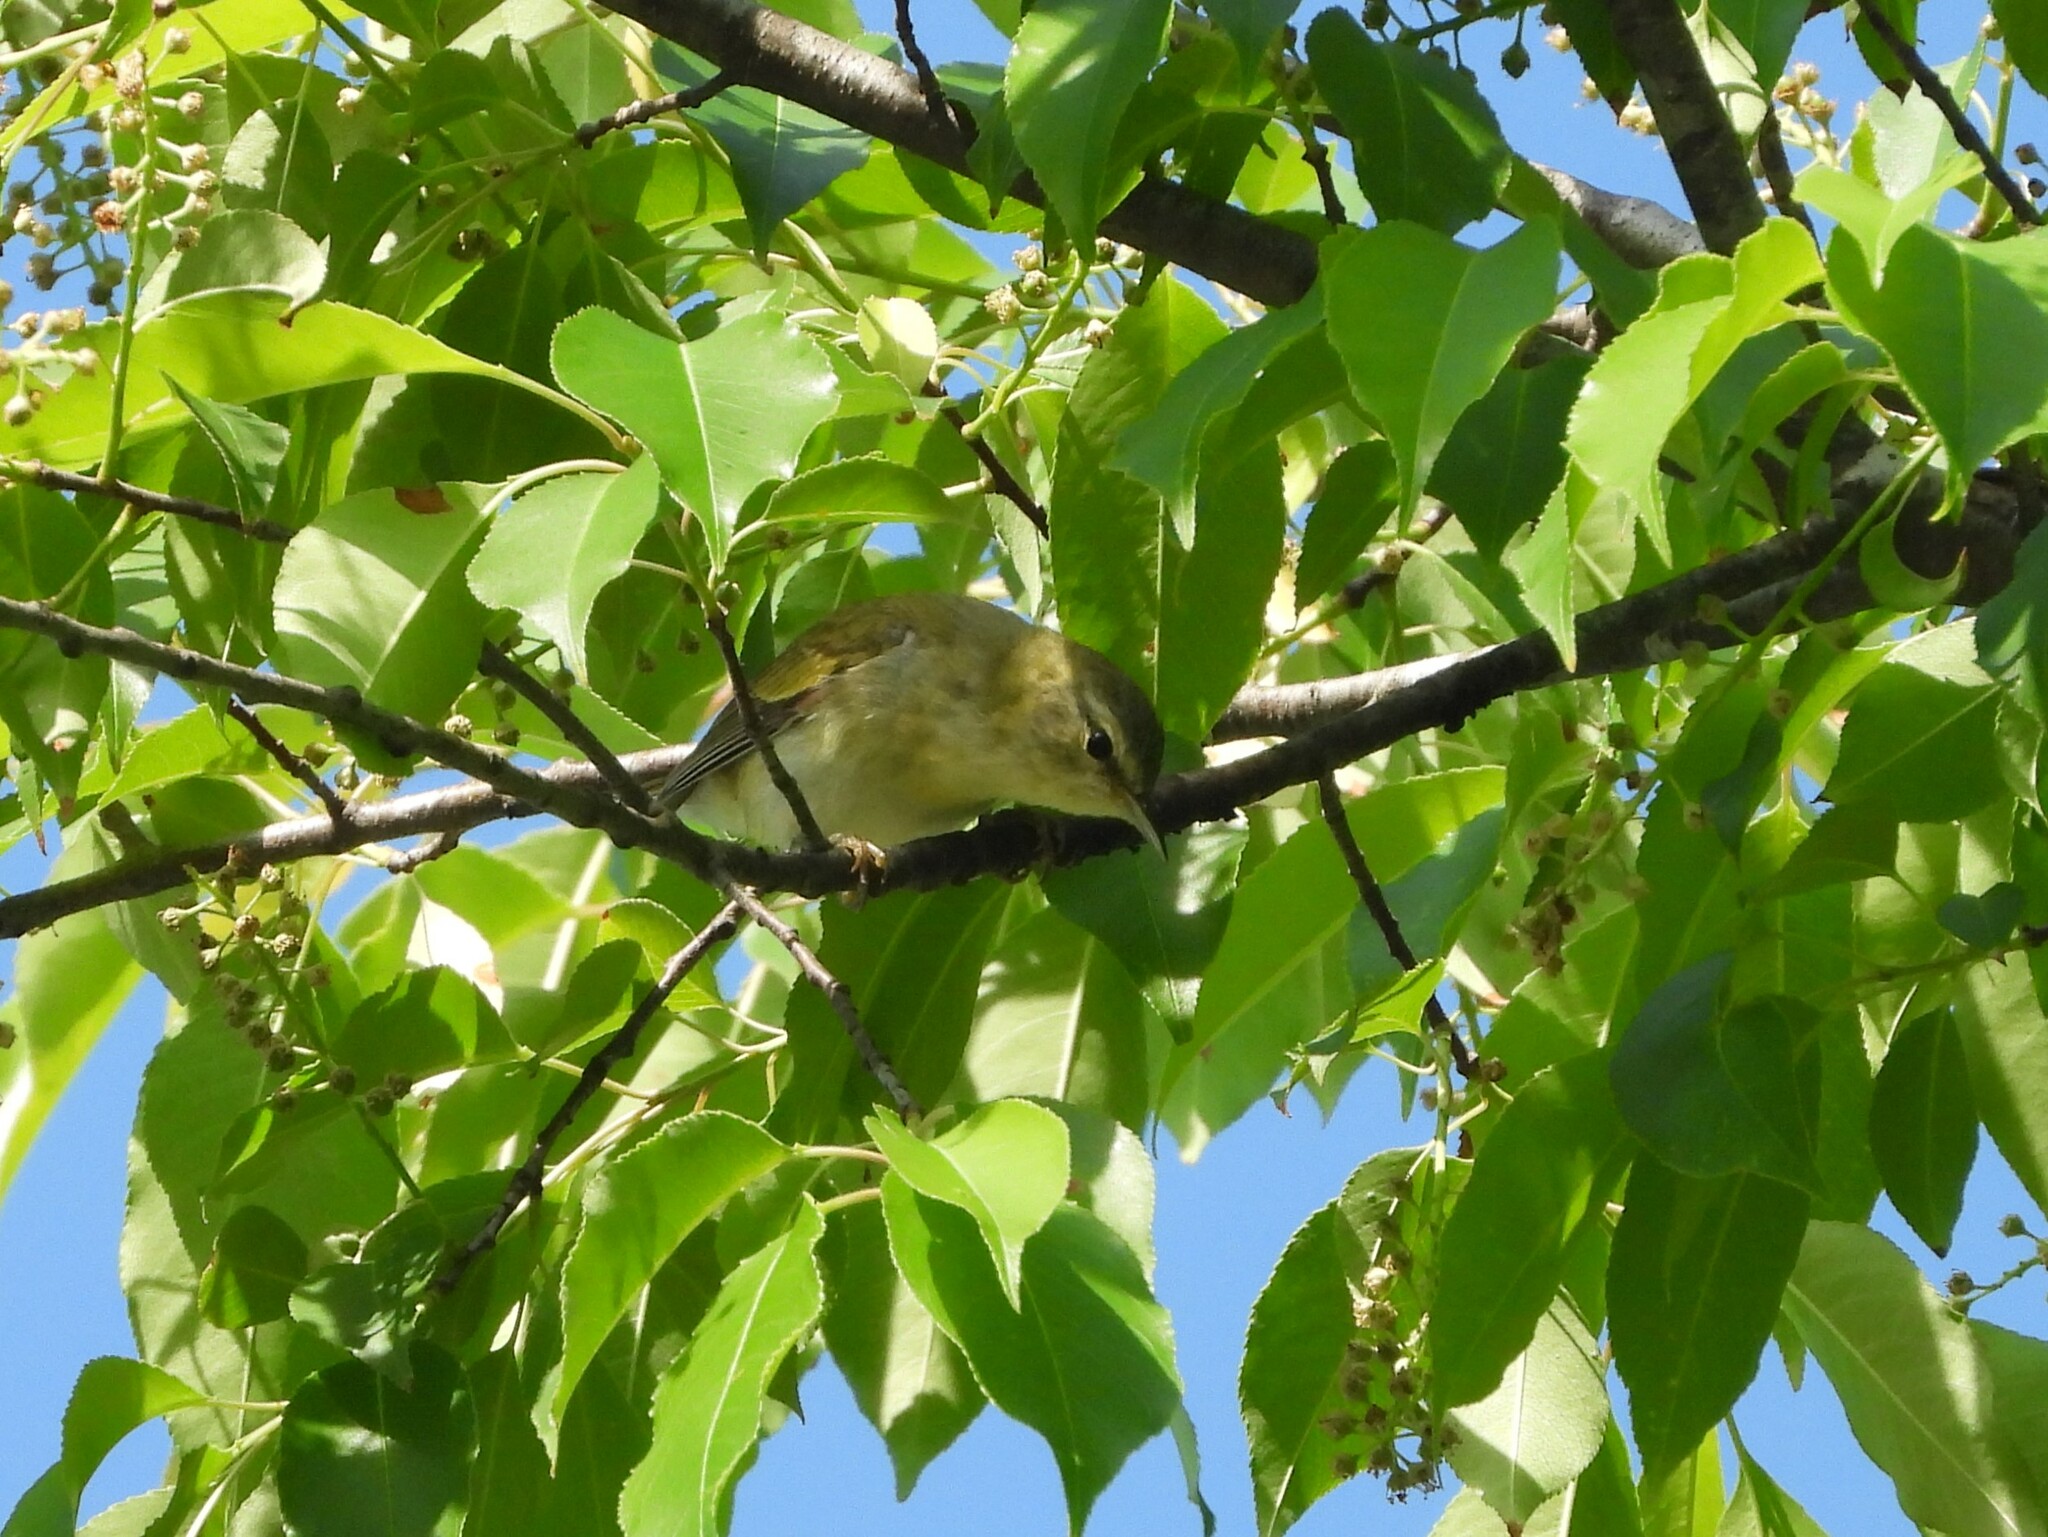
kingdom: Animalia
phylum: Chordata
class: Aves
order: Passeriformes
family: Vireonidae
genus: Vireo
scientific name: Vireo olivaceus
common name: Red-eyed vireo
